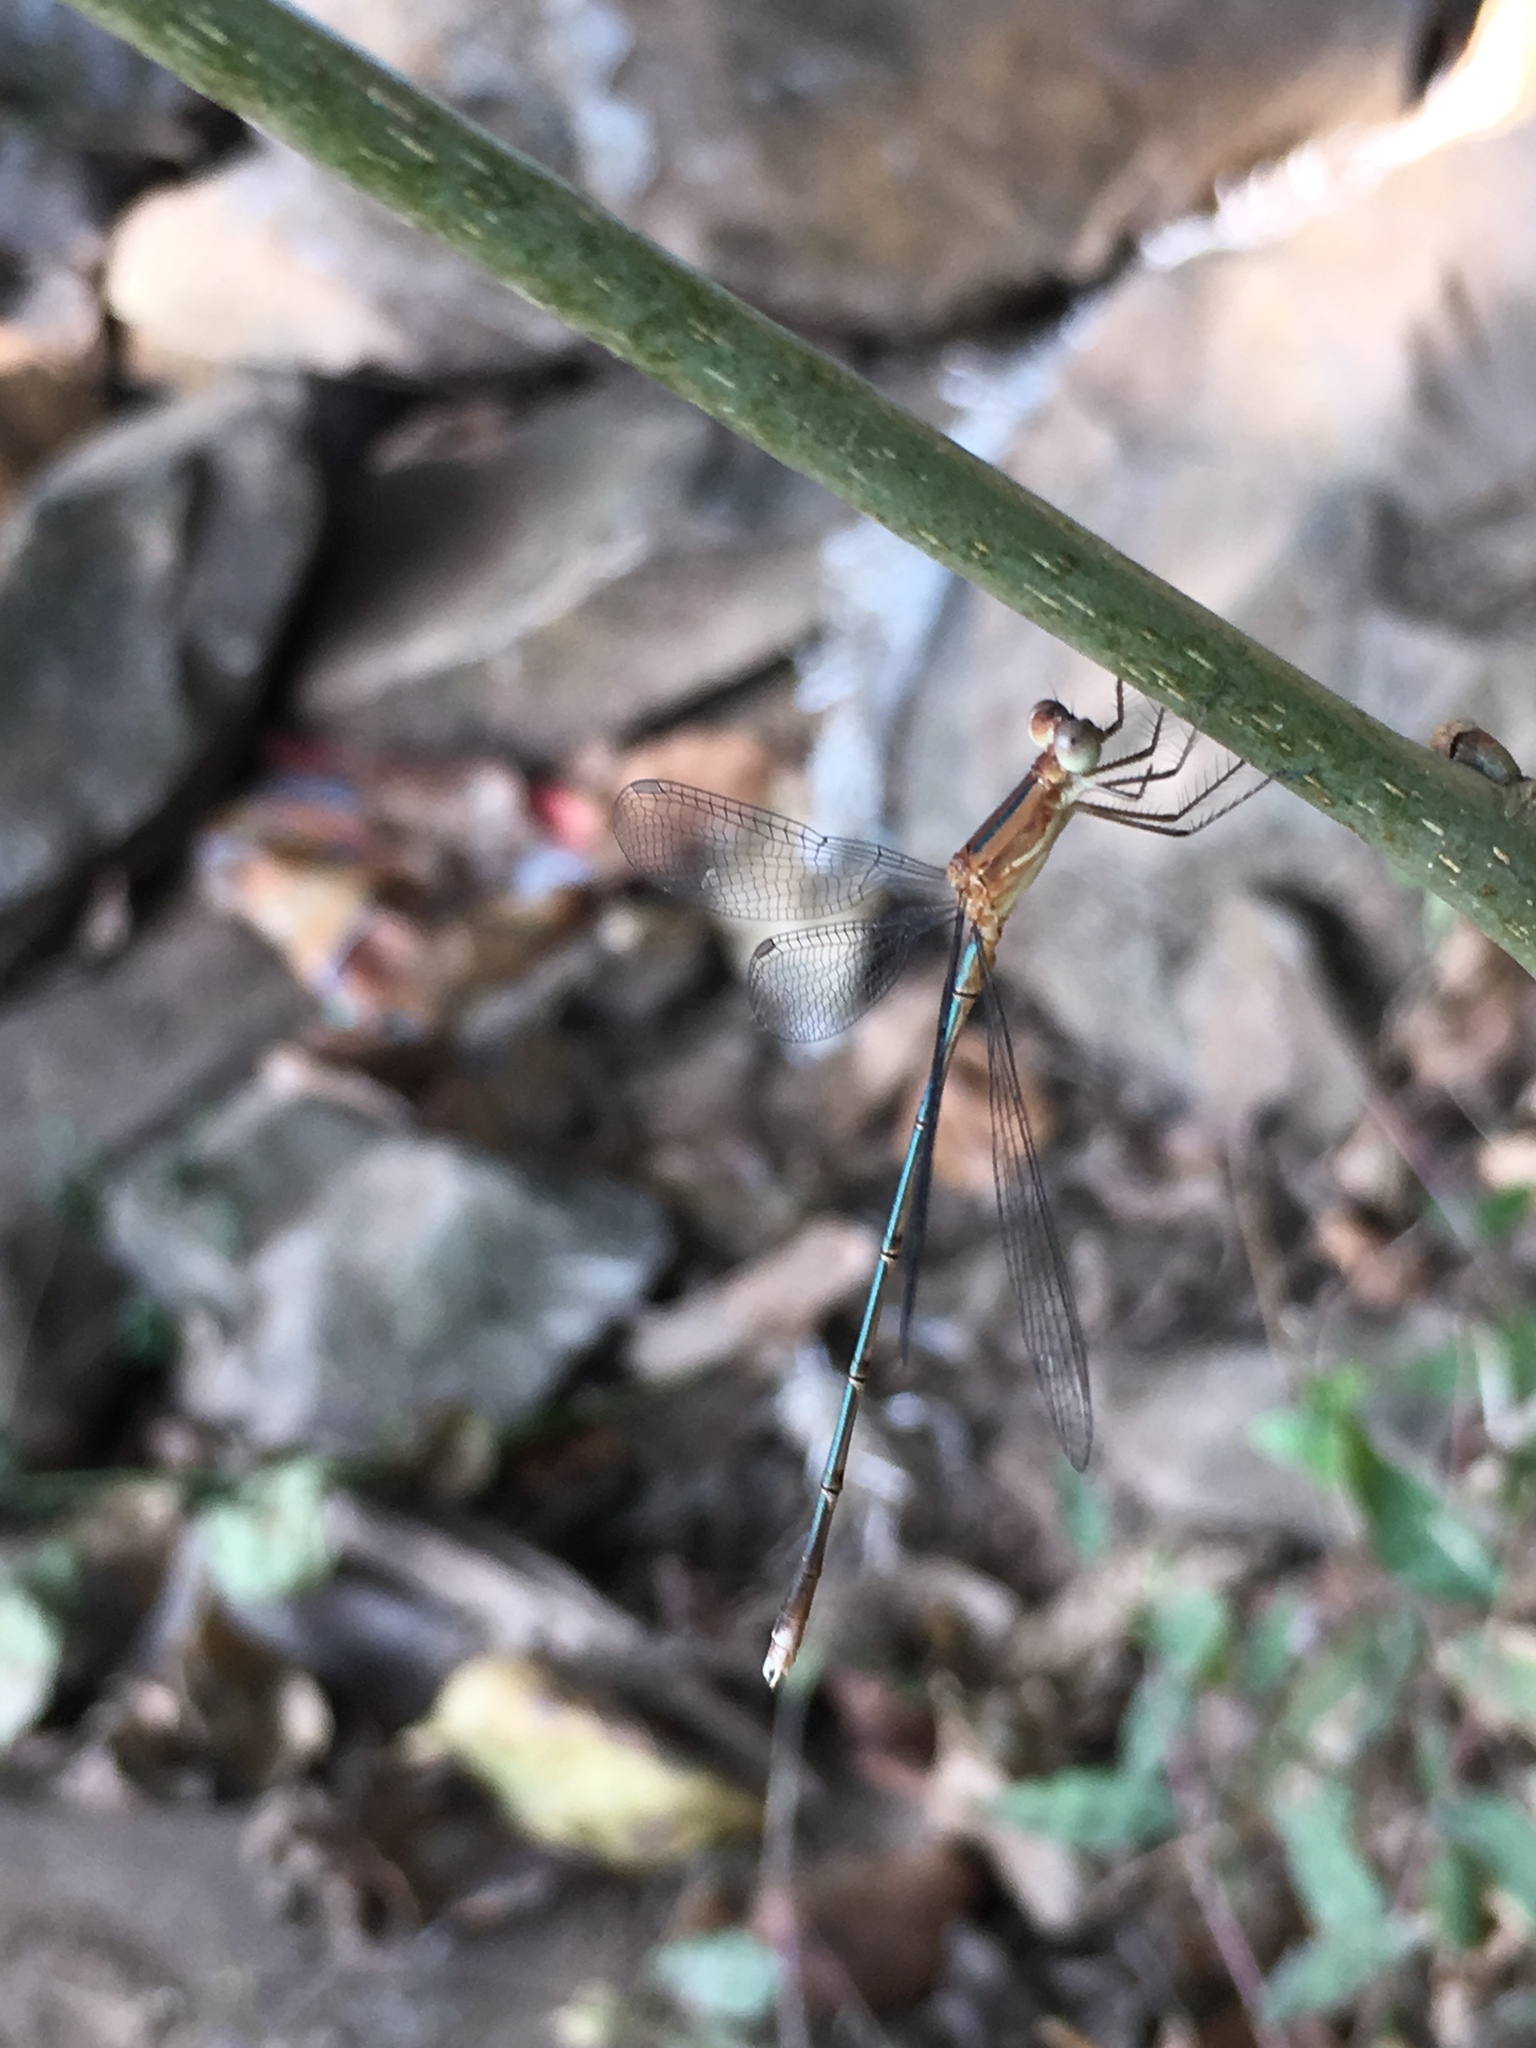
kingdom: Animalia
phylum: Arthropoda
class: Insecta
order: Odonata
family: Lestidae
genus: Lestes
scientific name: Lestes viridulus
